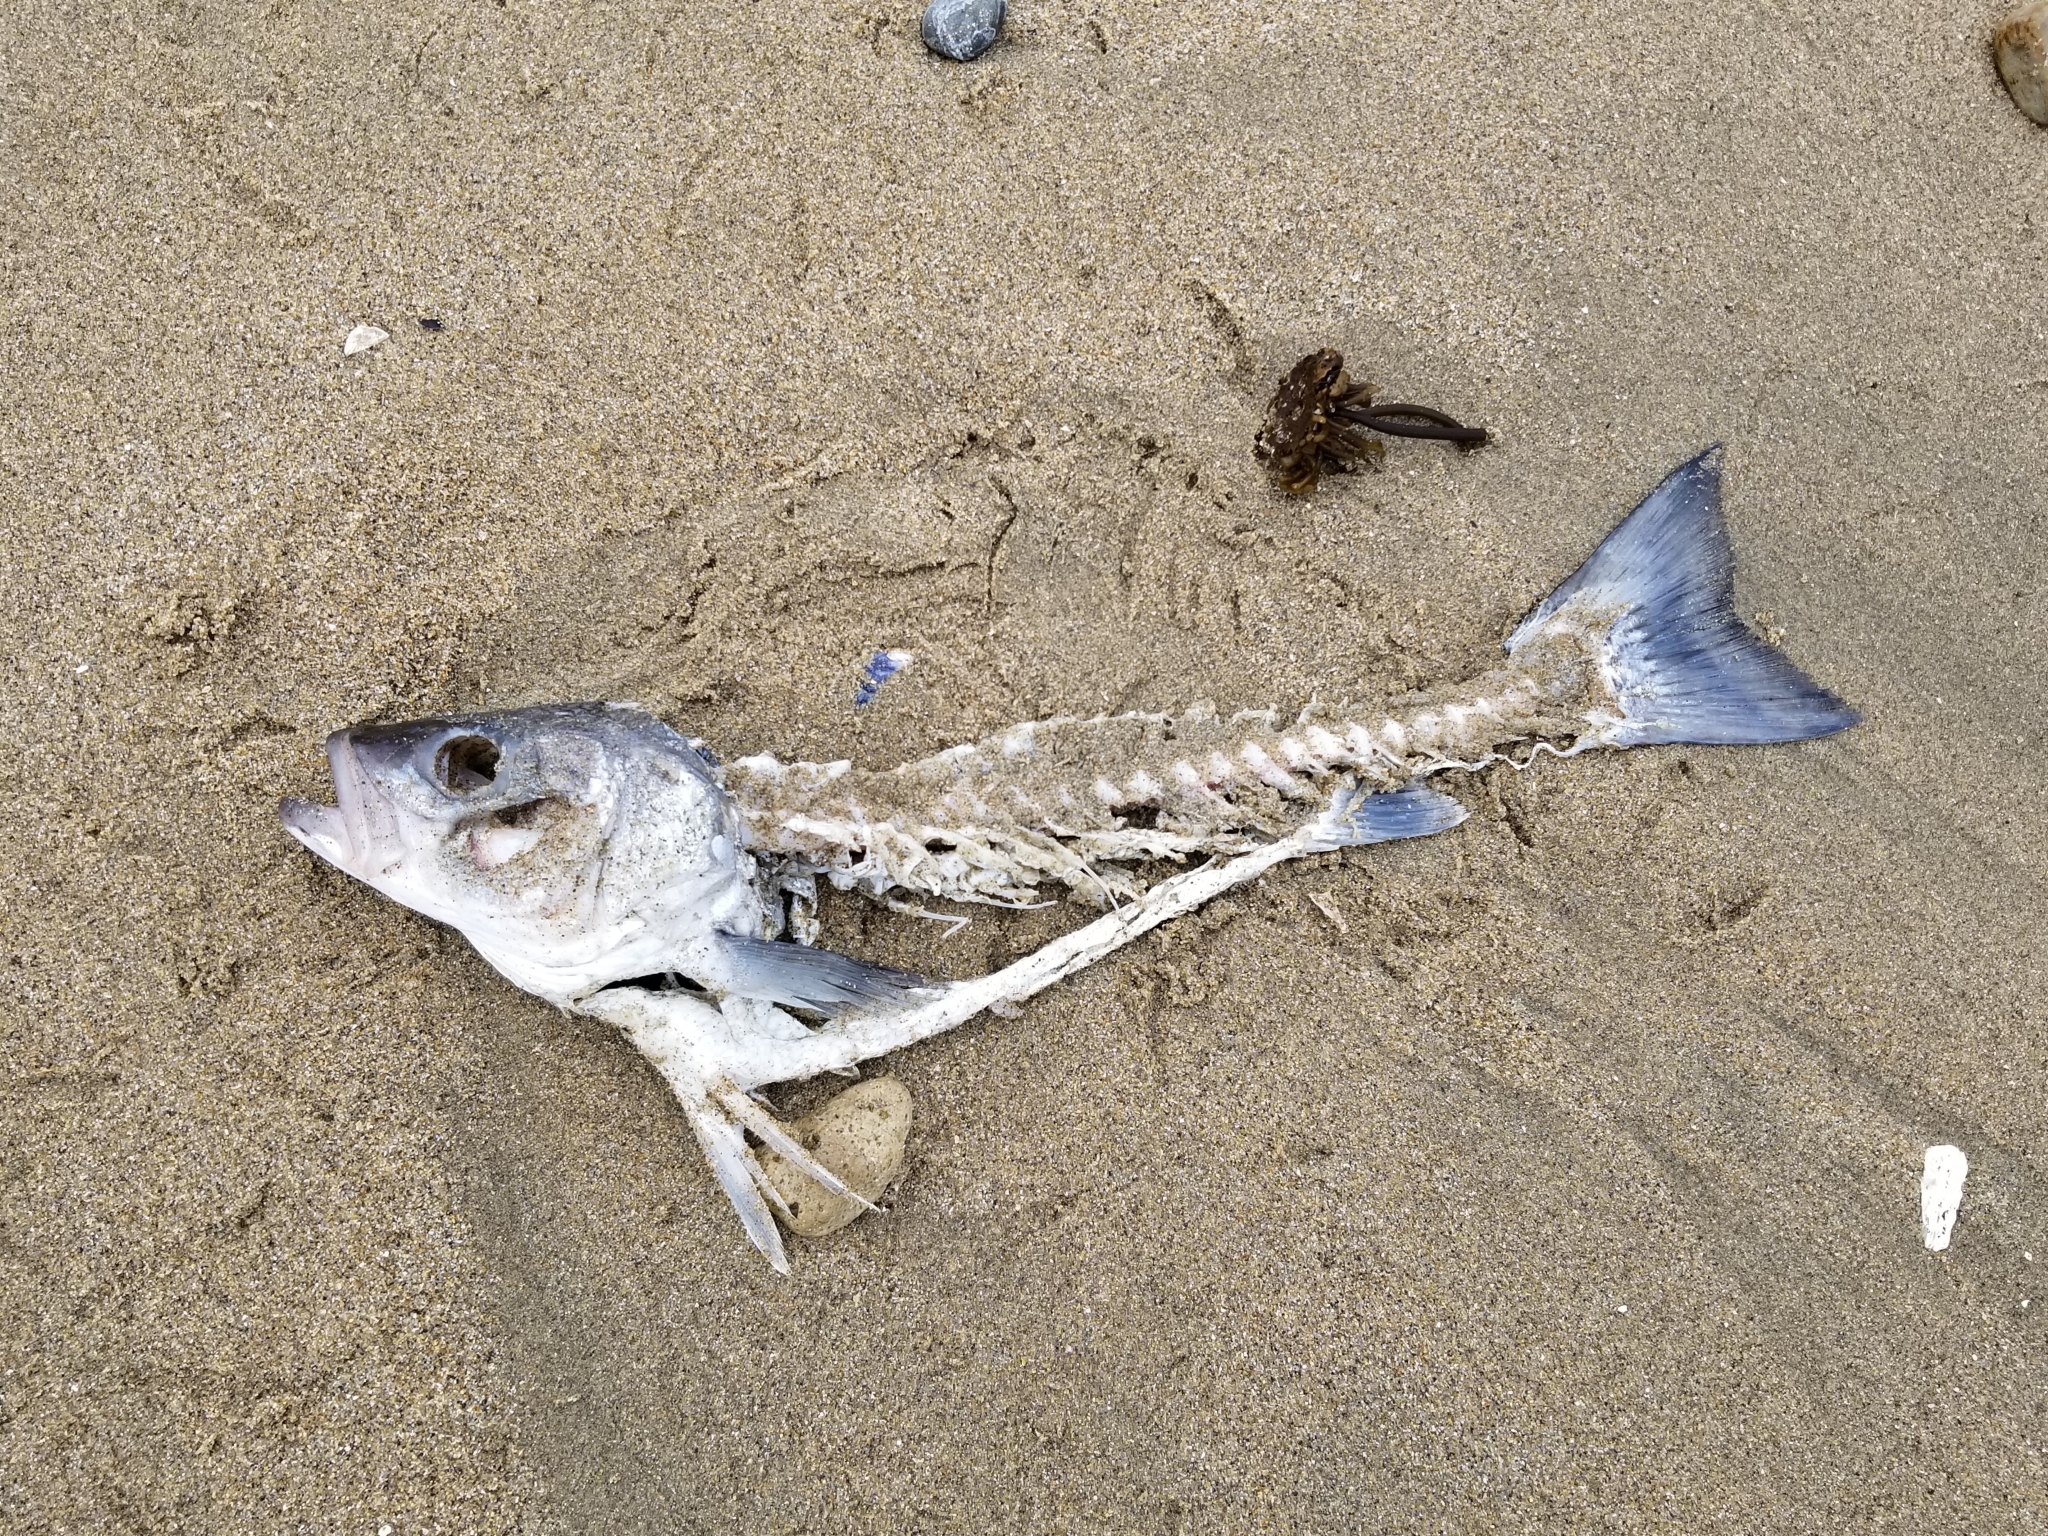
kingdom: Animalia
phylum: Chordata
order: Perciformes
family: Moronidae
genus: Morone
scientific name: Morone saxatilis
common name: Striped bass
